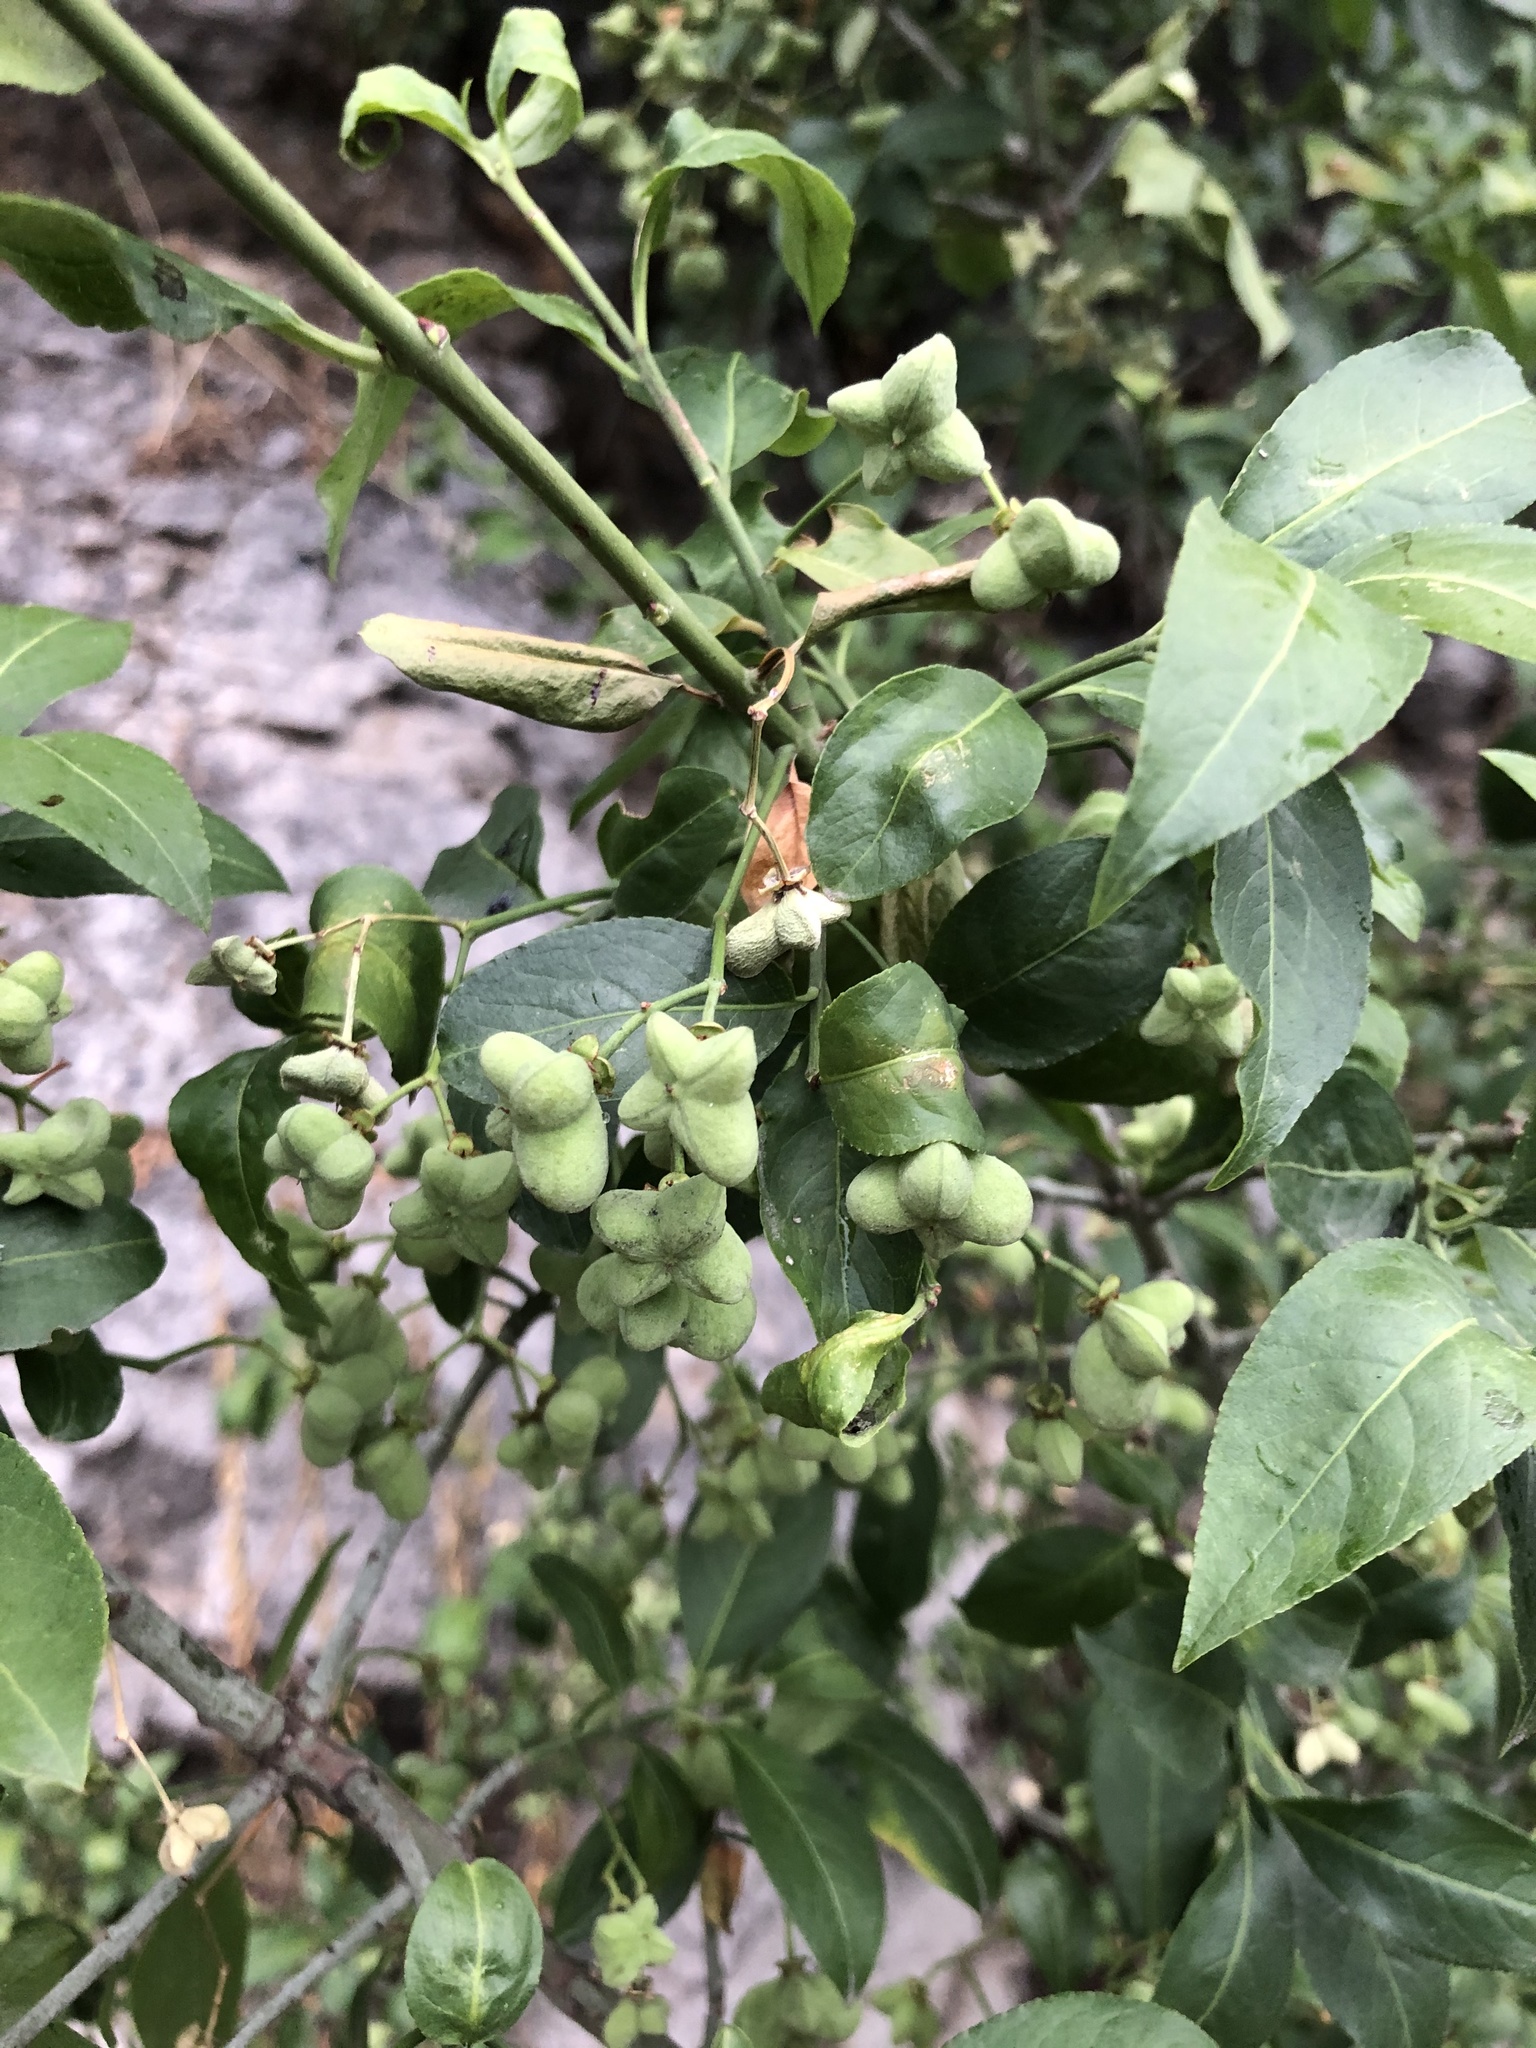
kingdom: Plantae
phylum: Tracheophyta
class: Magnoliopsida
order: Celastrales
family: Celastraceae
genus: Euonymus
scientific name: Euonymus europaeus
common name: Spindle
